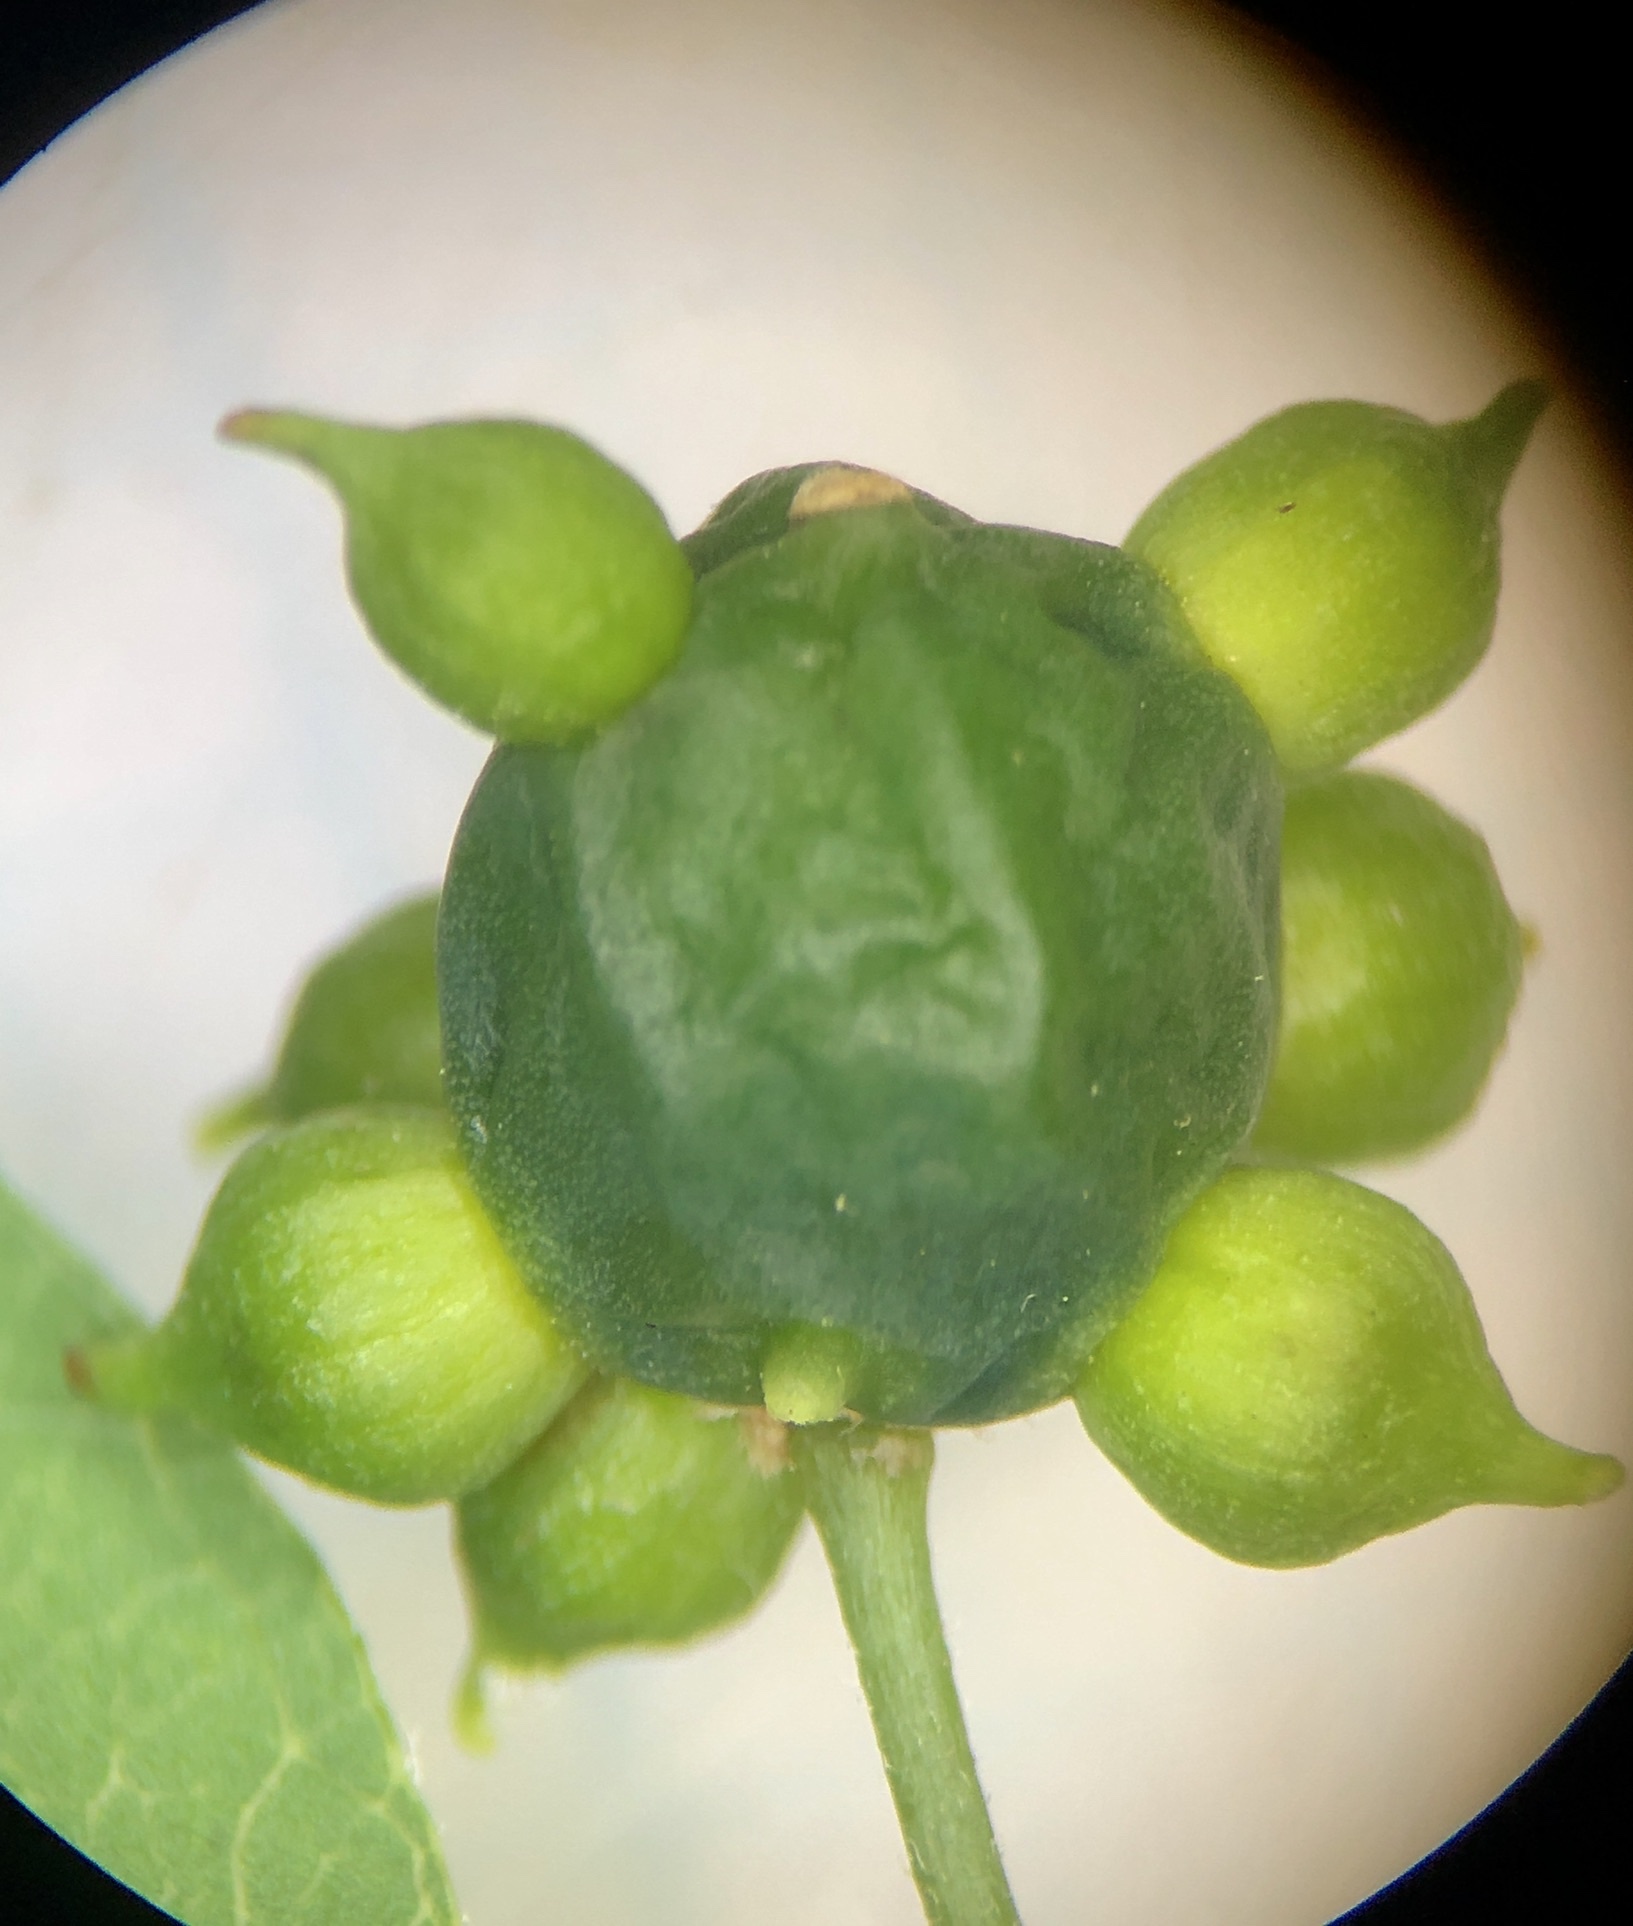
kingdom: Animalia
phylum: Arthropoda
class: Insecta
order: Diptera
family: Cecidomyiidae
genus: Celticecis
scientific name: Celticecis connata
